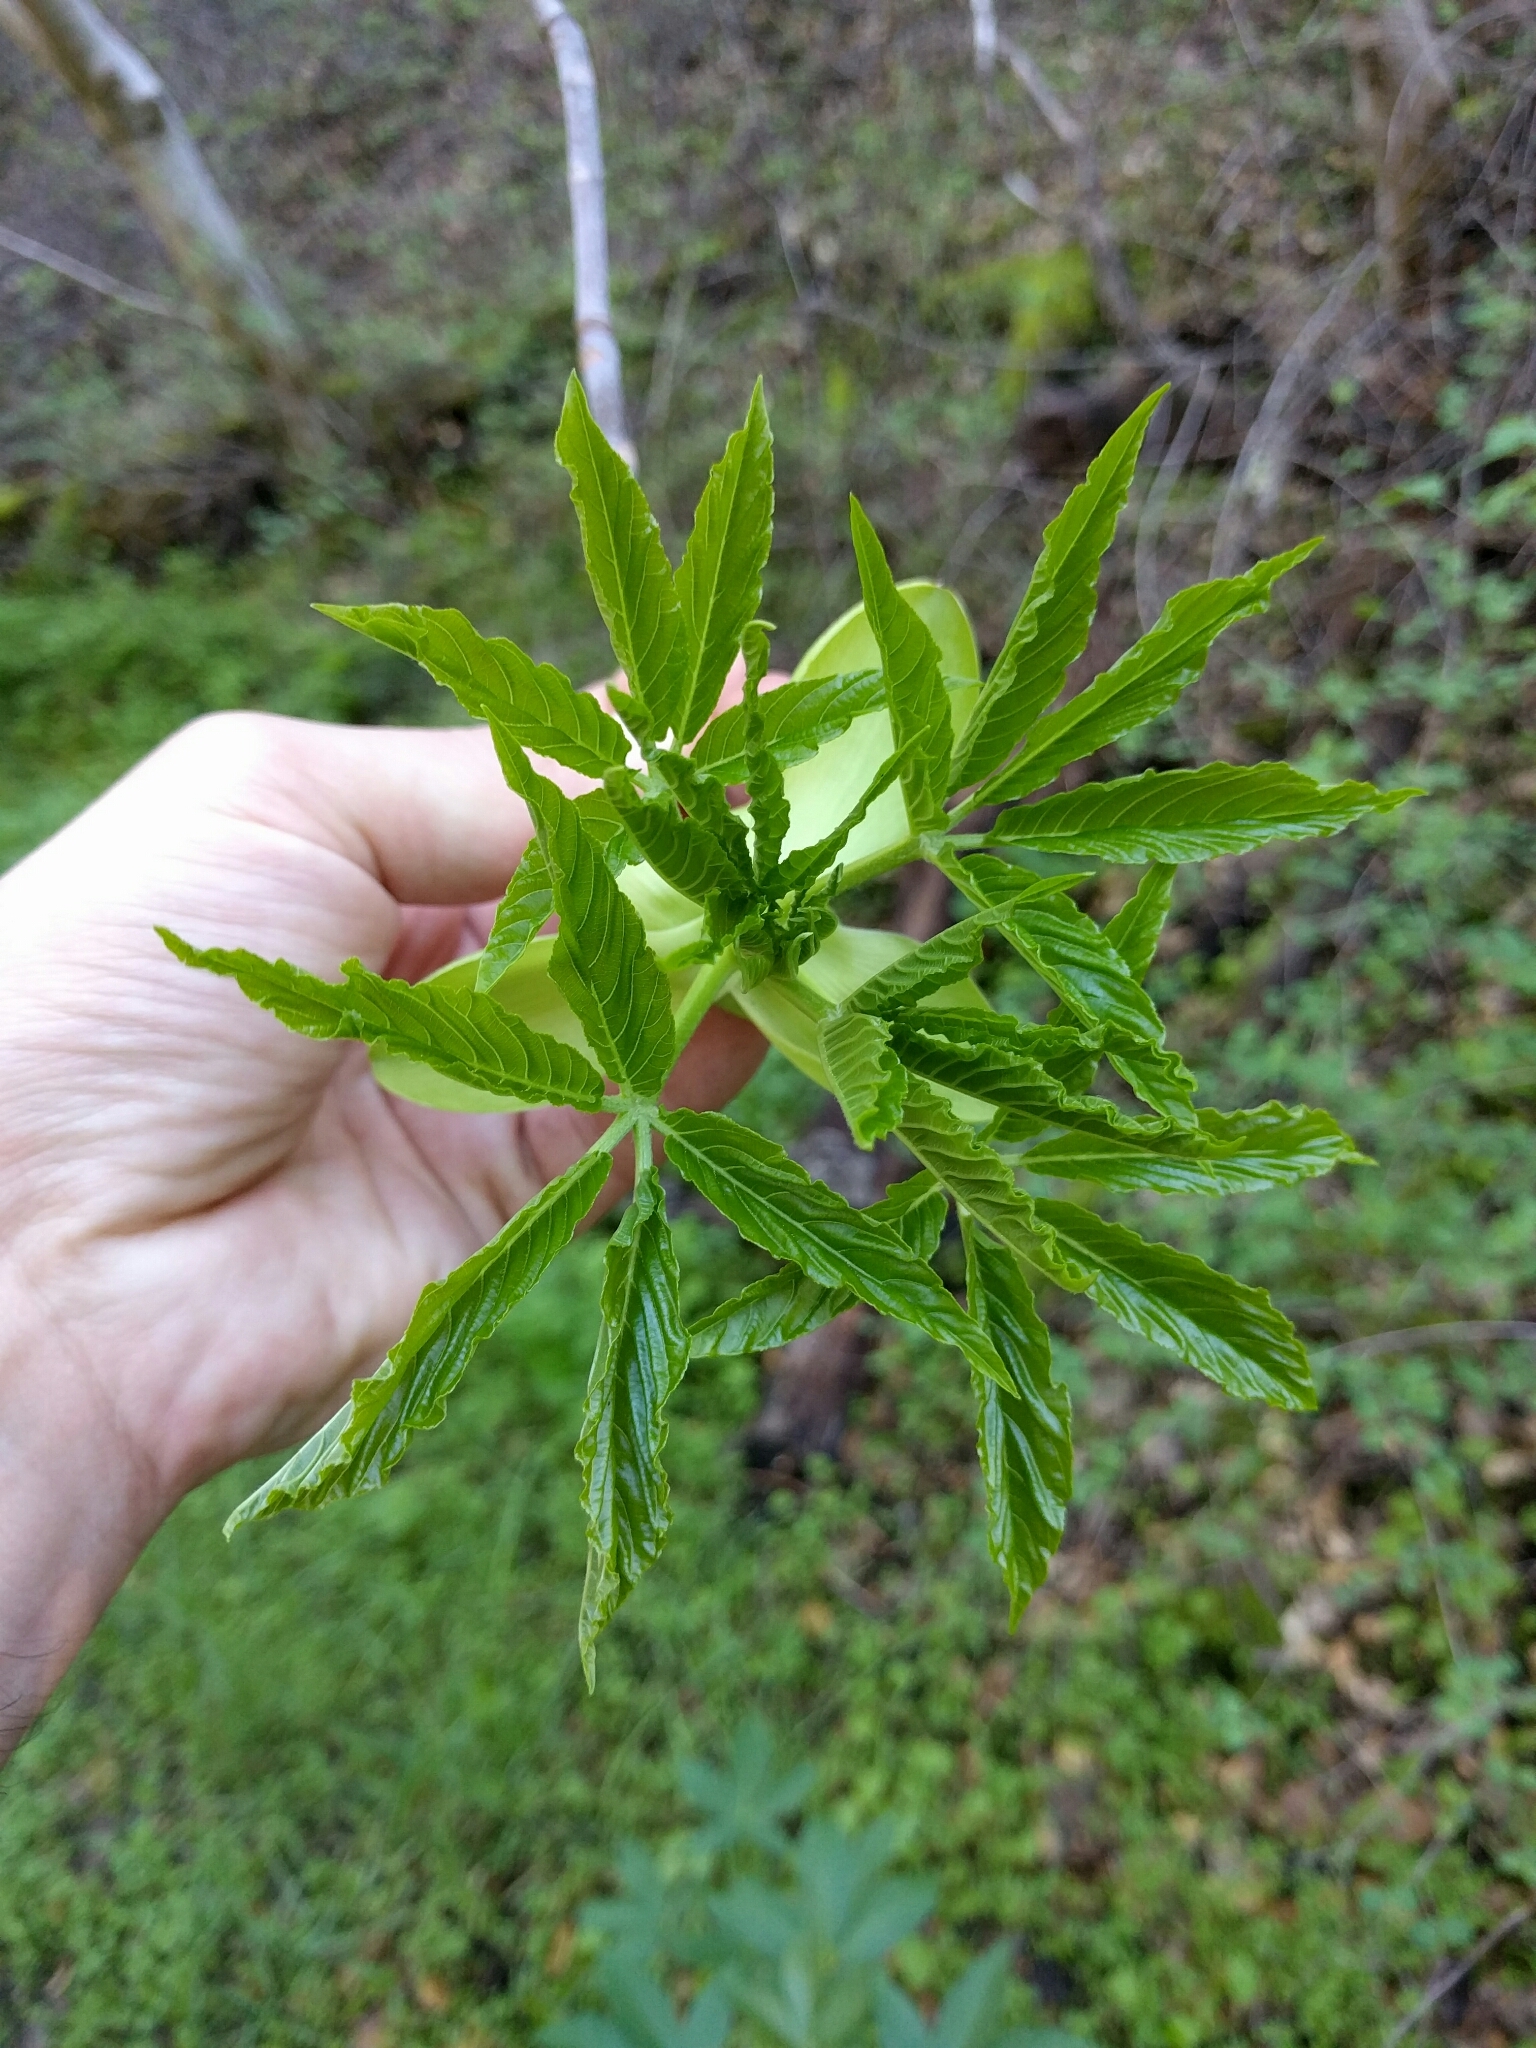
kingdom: Plantae
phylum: Tracheophyta
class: Magnoliopsida
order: Sapindales
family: Sapindaceae
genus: Aesculus
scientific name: Aesculus californica
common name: California buckeye
